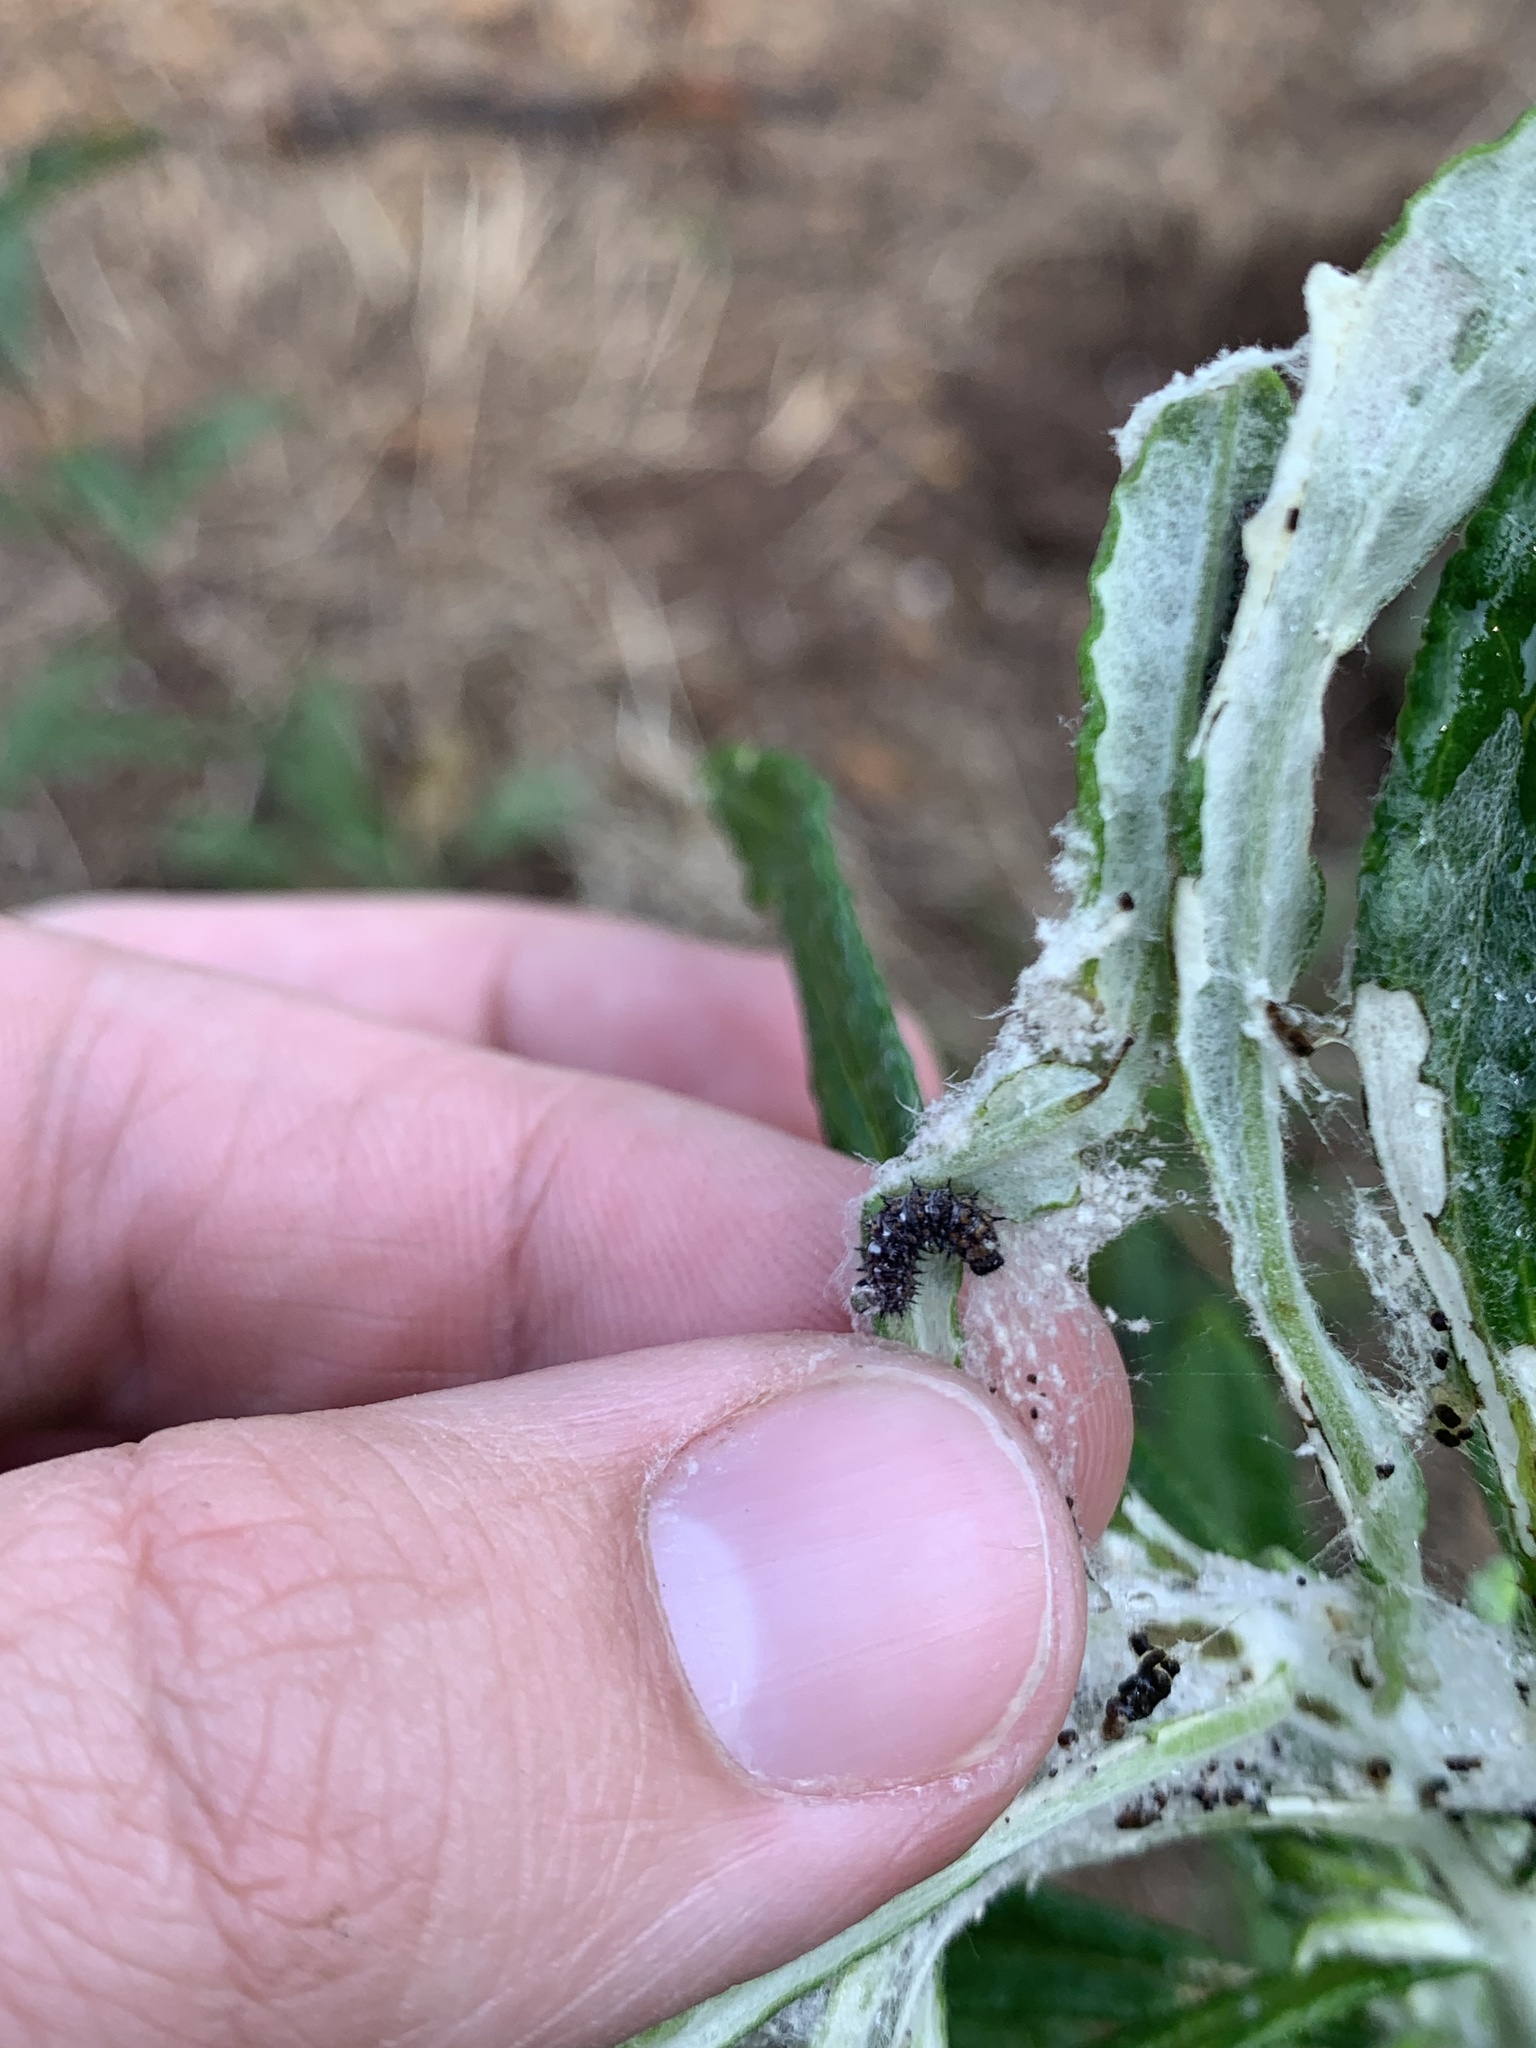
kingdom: Animalia
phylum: Arthropoda
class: Insecta
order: Lepidoptera
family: Nymphalidae
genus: Vanessa
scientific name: Vanessa virginiensis
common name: American lady
